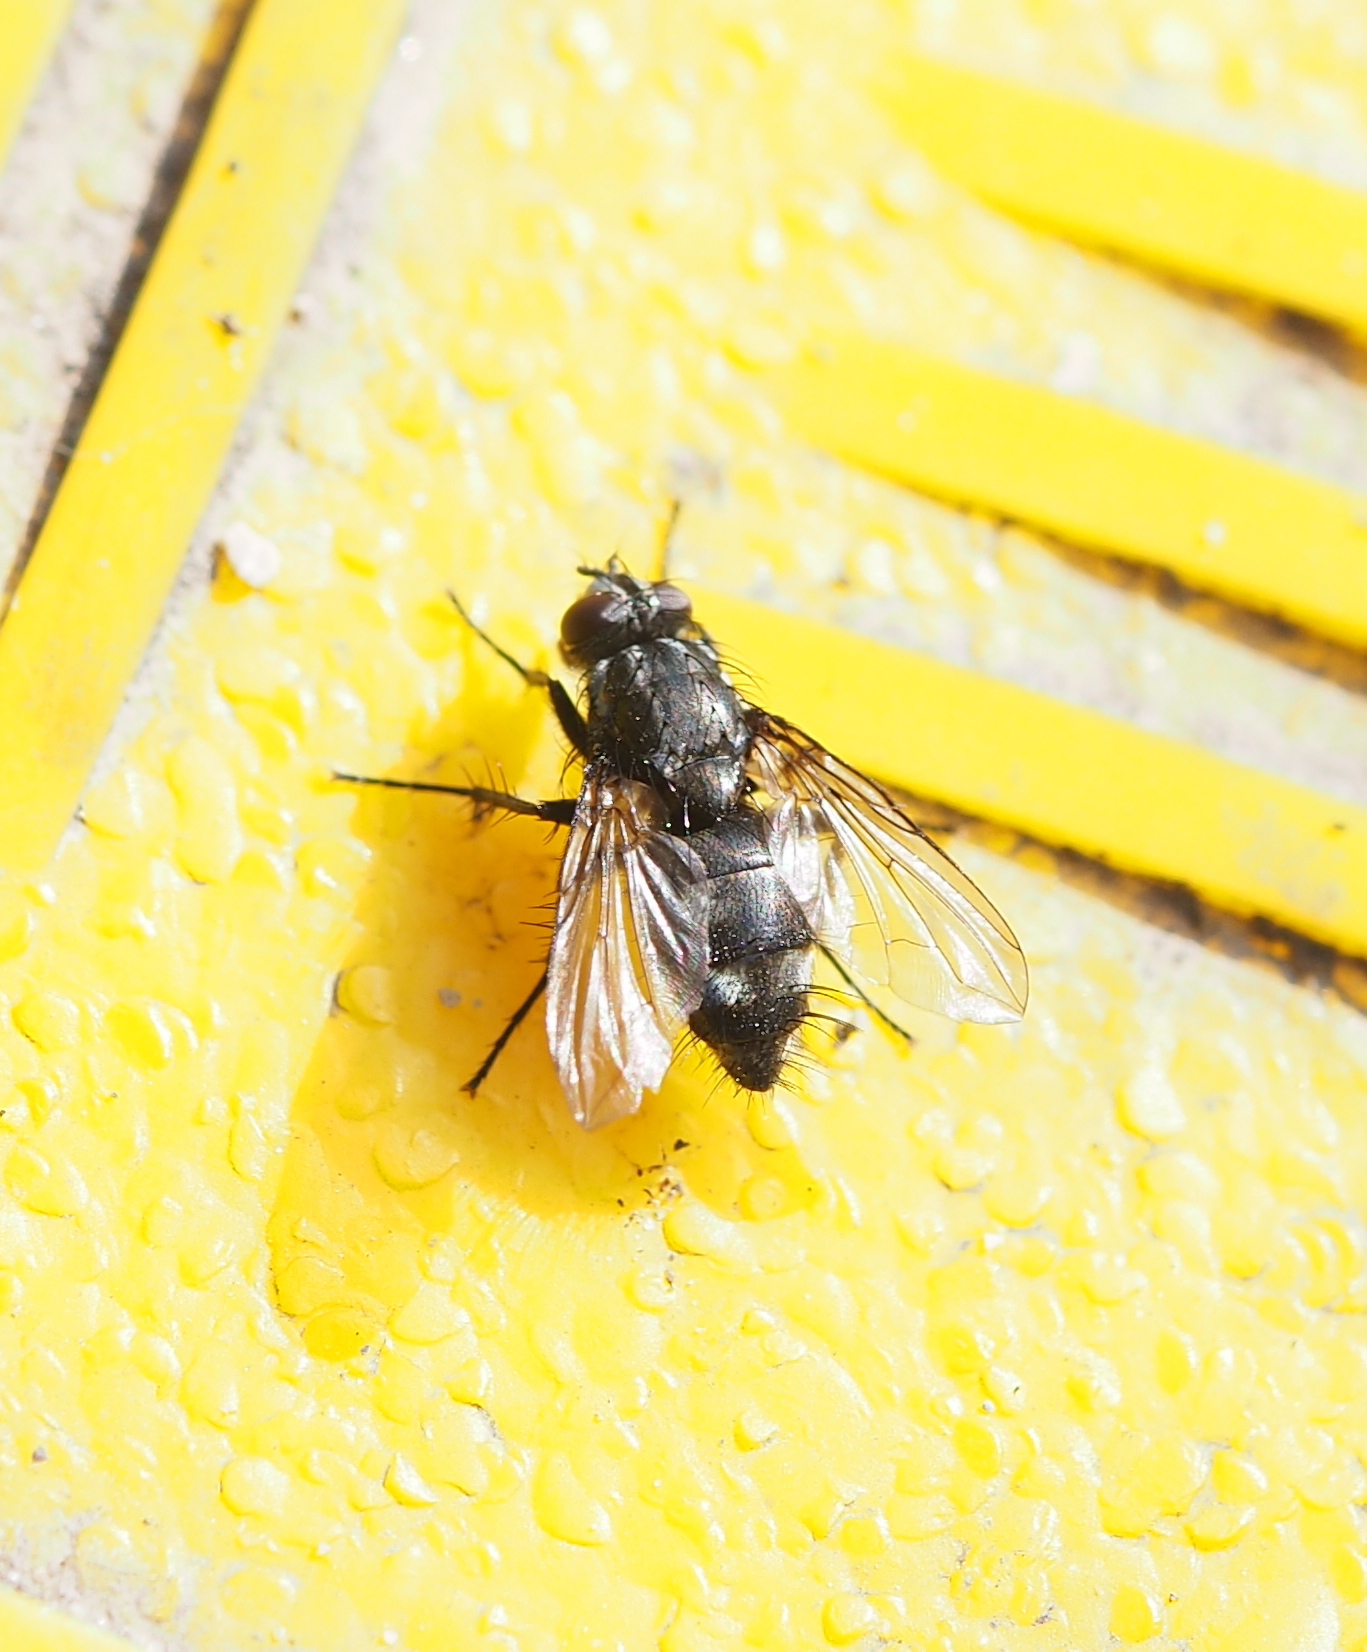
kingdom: Animalia
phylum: Arthropoda
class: Insecta
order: Diptera
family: Calliphoridae
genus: Rhinomorinia
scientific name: Rhinomorinia sarcophagina
